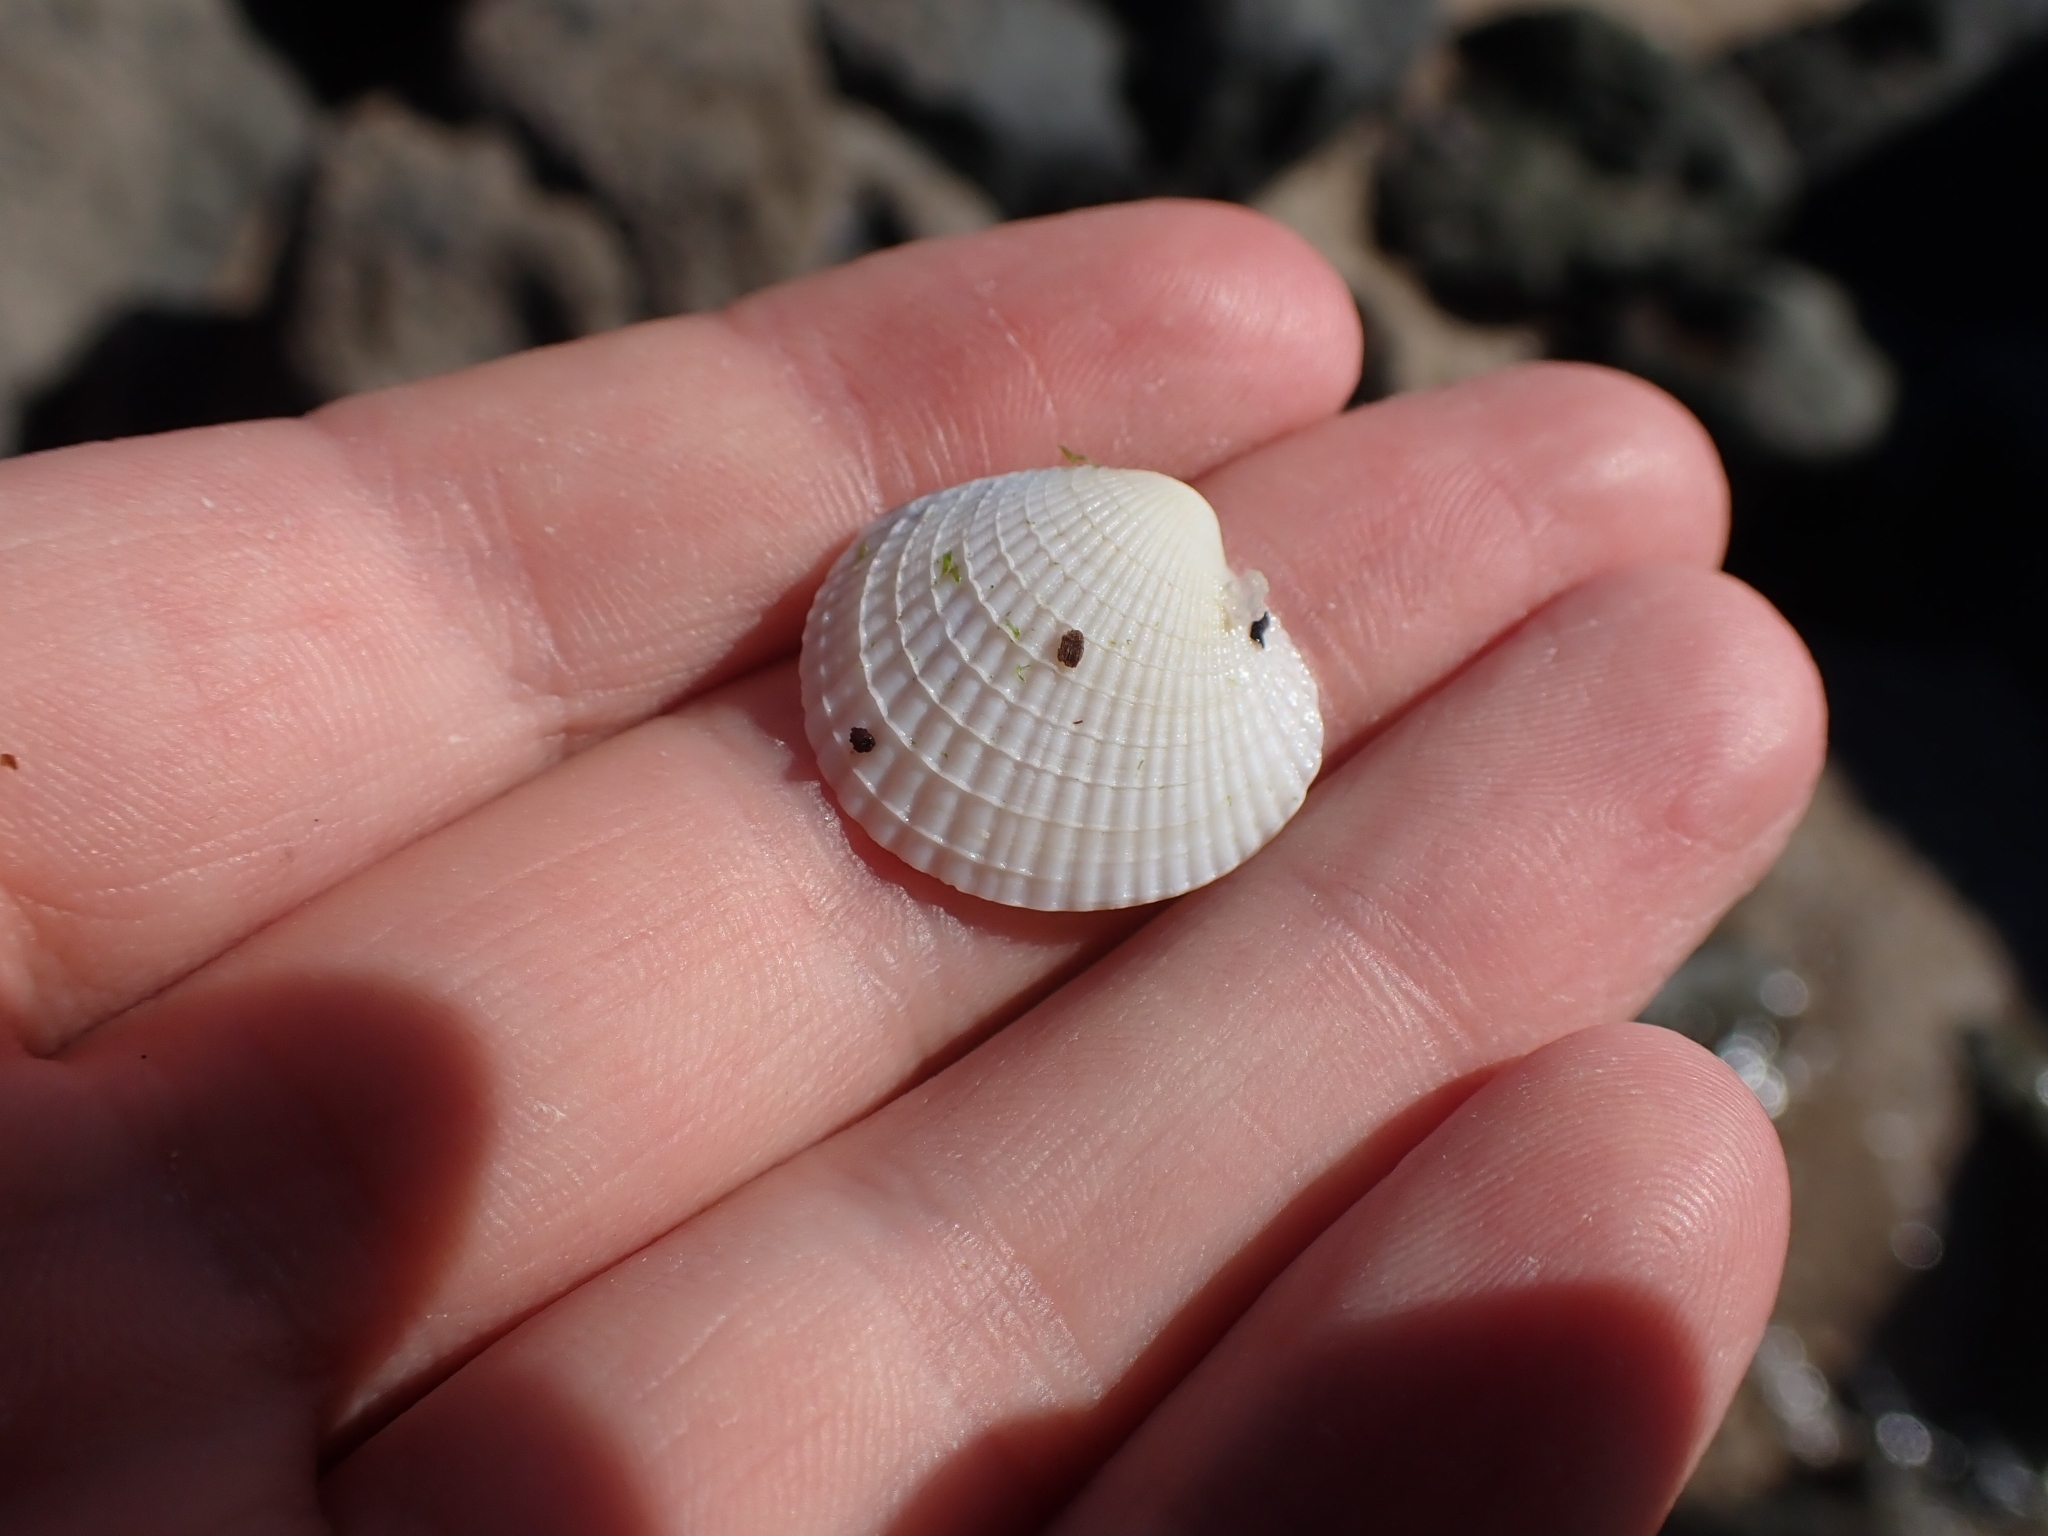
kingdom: Animalia
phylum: Mollusca
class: Bivalvia
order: Venerida
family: Veneridae
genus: Austrovenus
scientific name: Austrovenus stutchburyi
